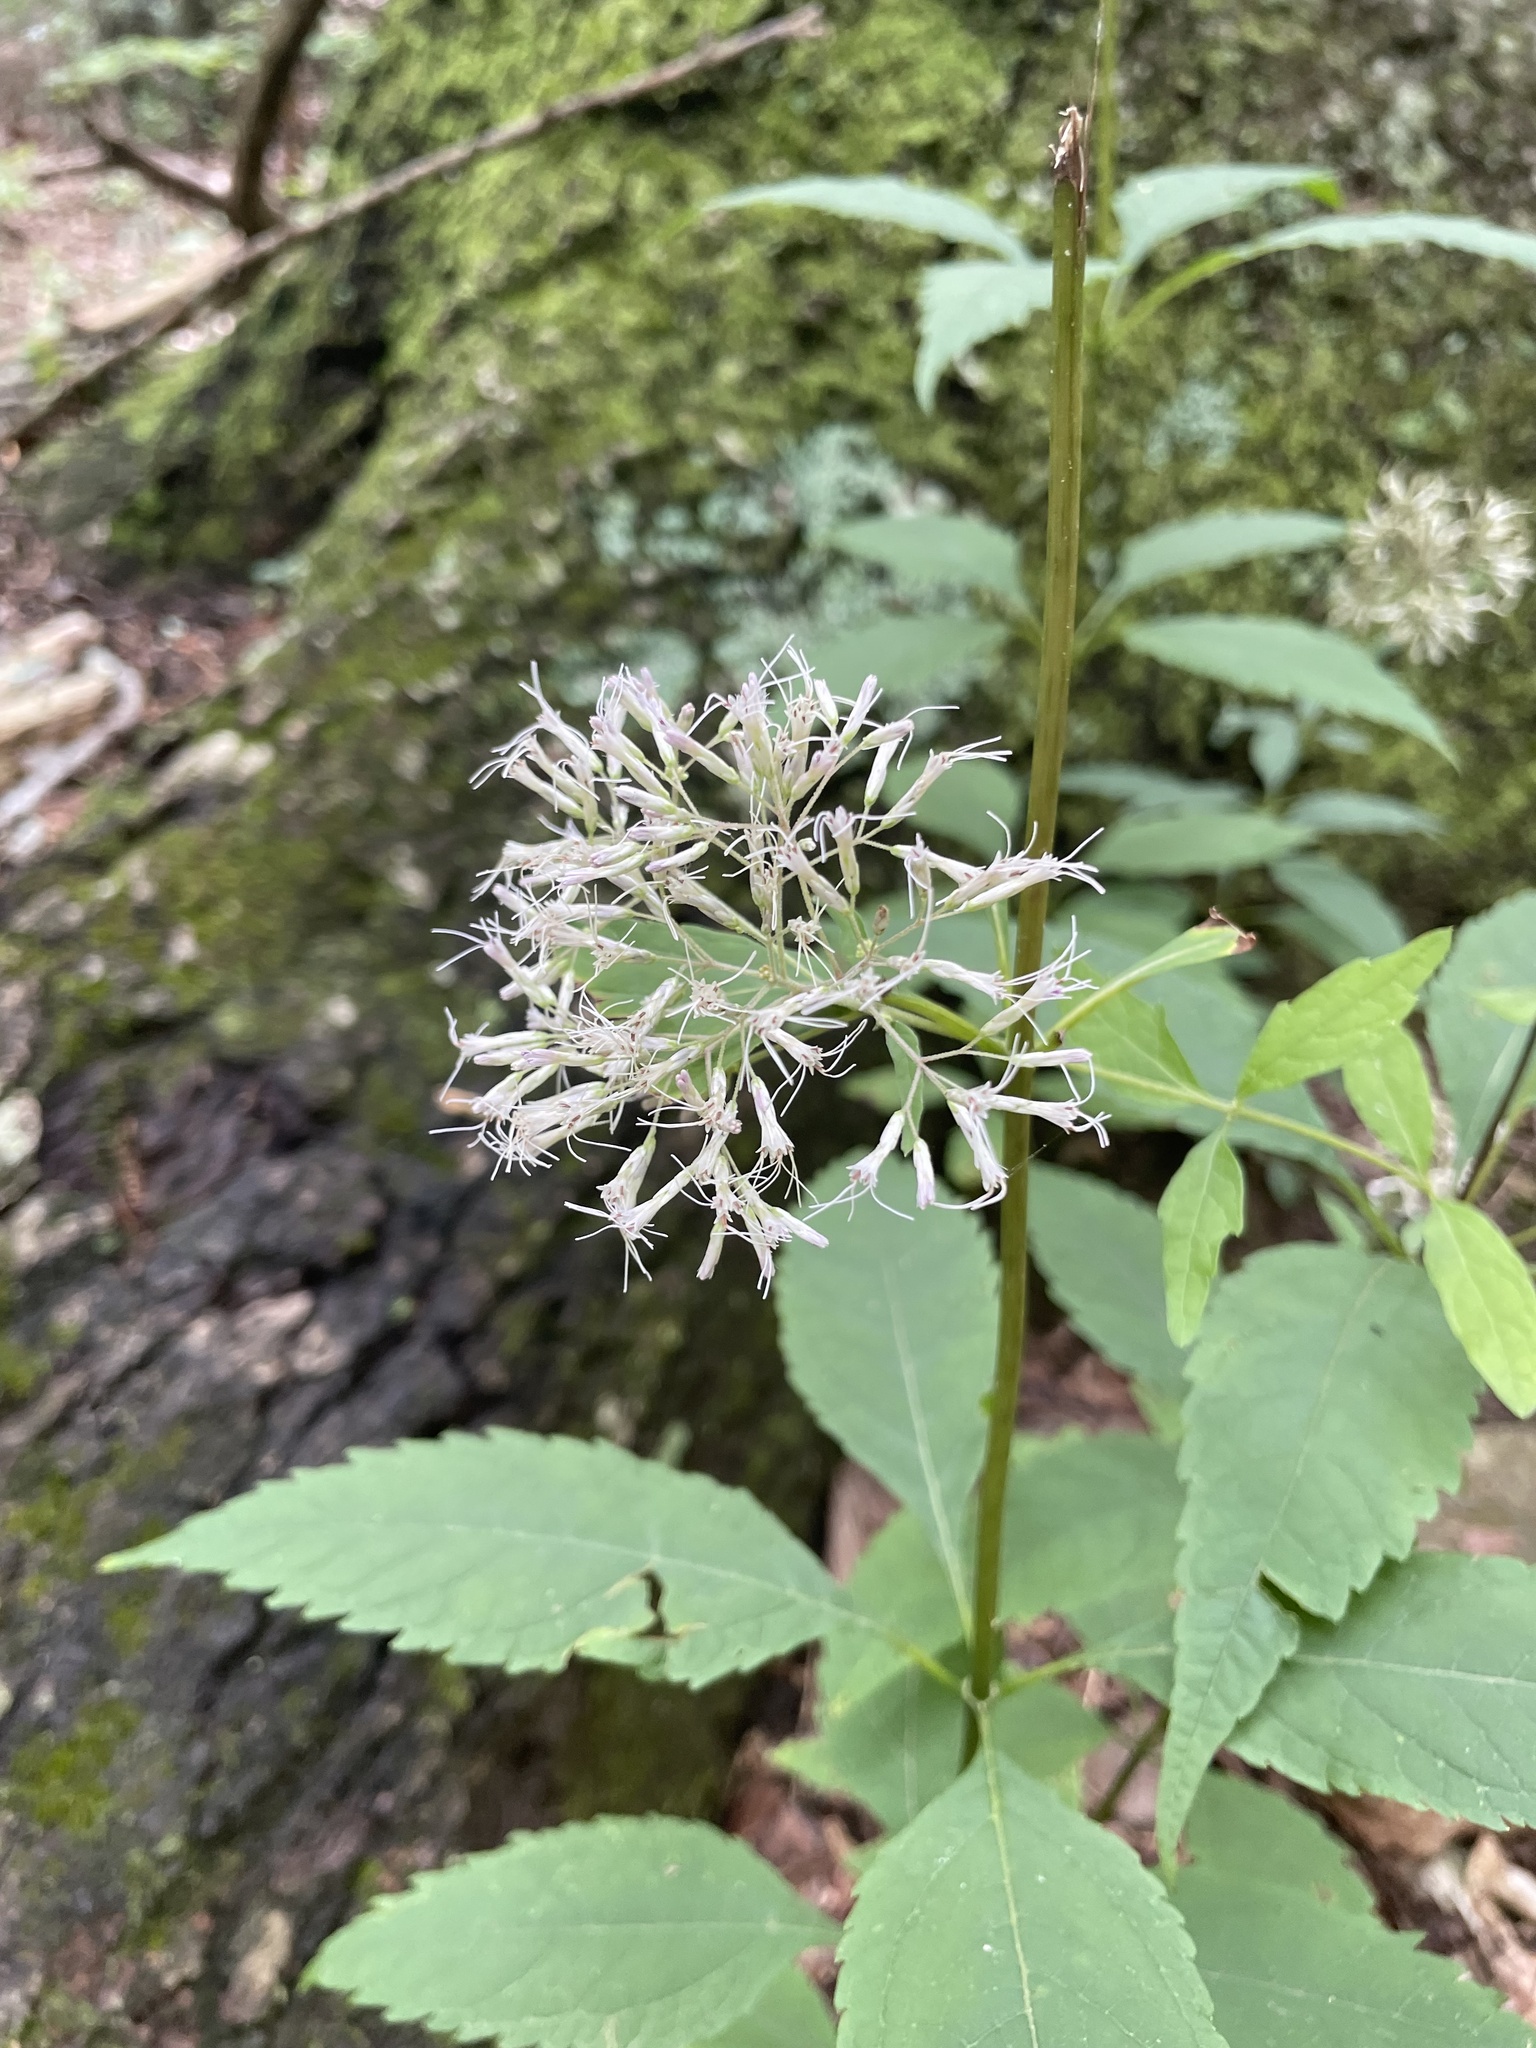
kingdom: Plantae
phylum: Tracheophyta
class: Magnoliopsida
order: Asterales
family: Asteraceae
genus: Eutrochium
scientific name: Eutrochium purpureum
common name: Gravelroot
